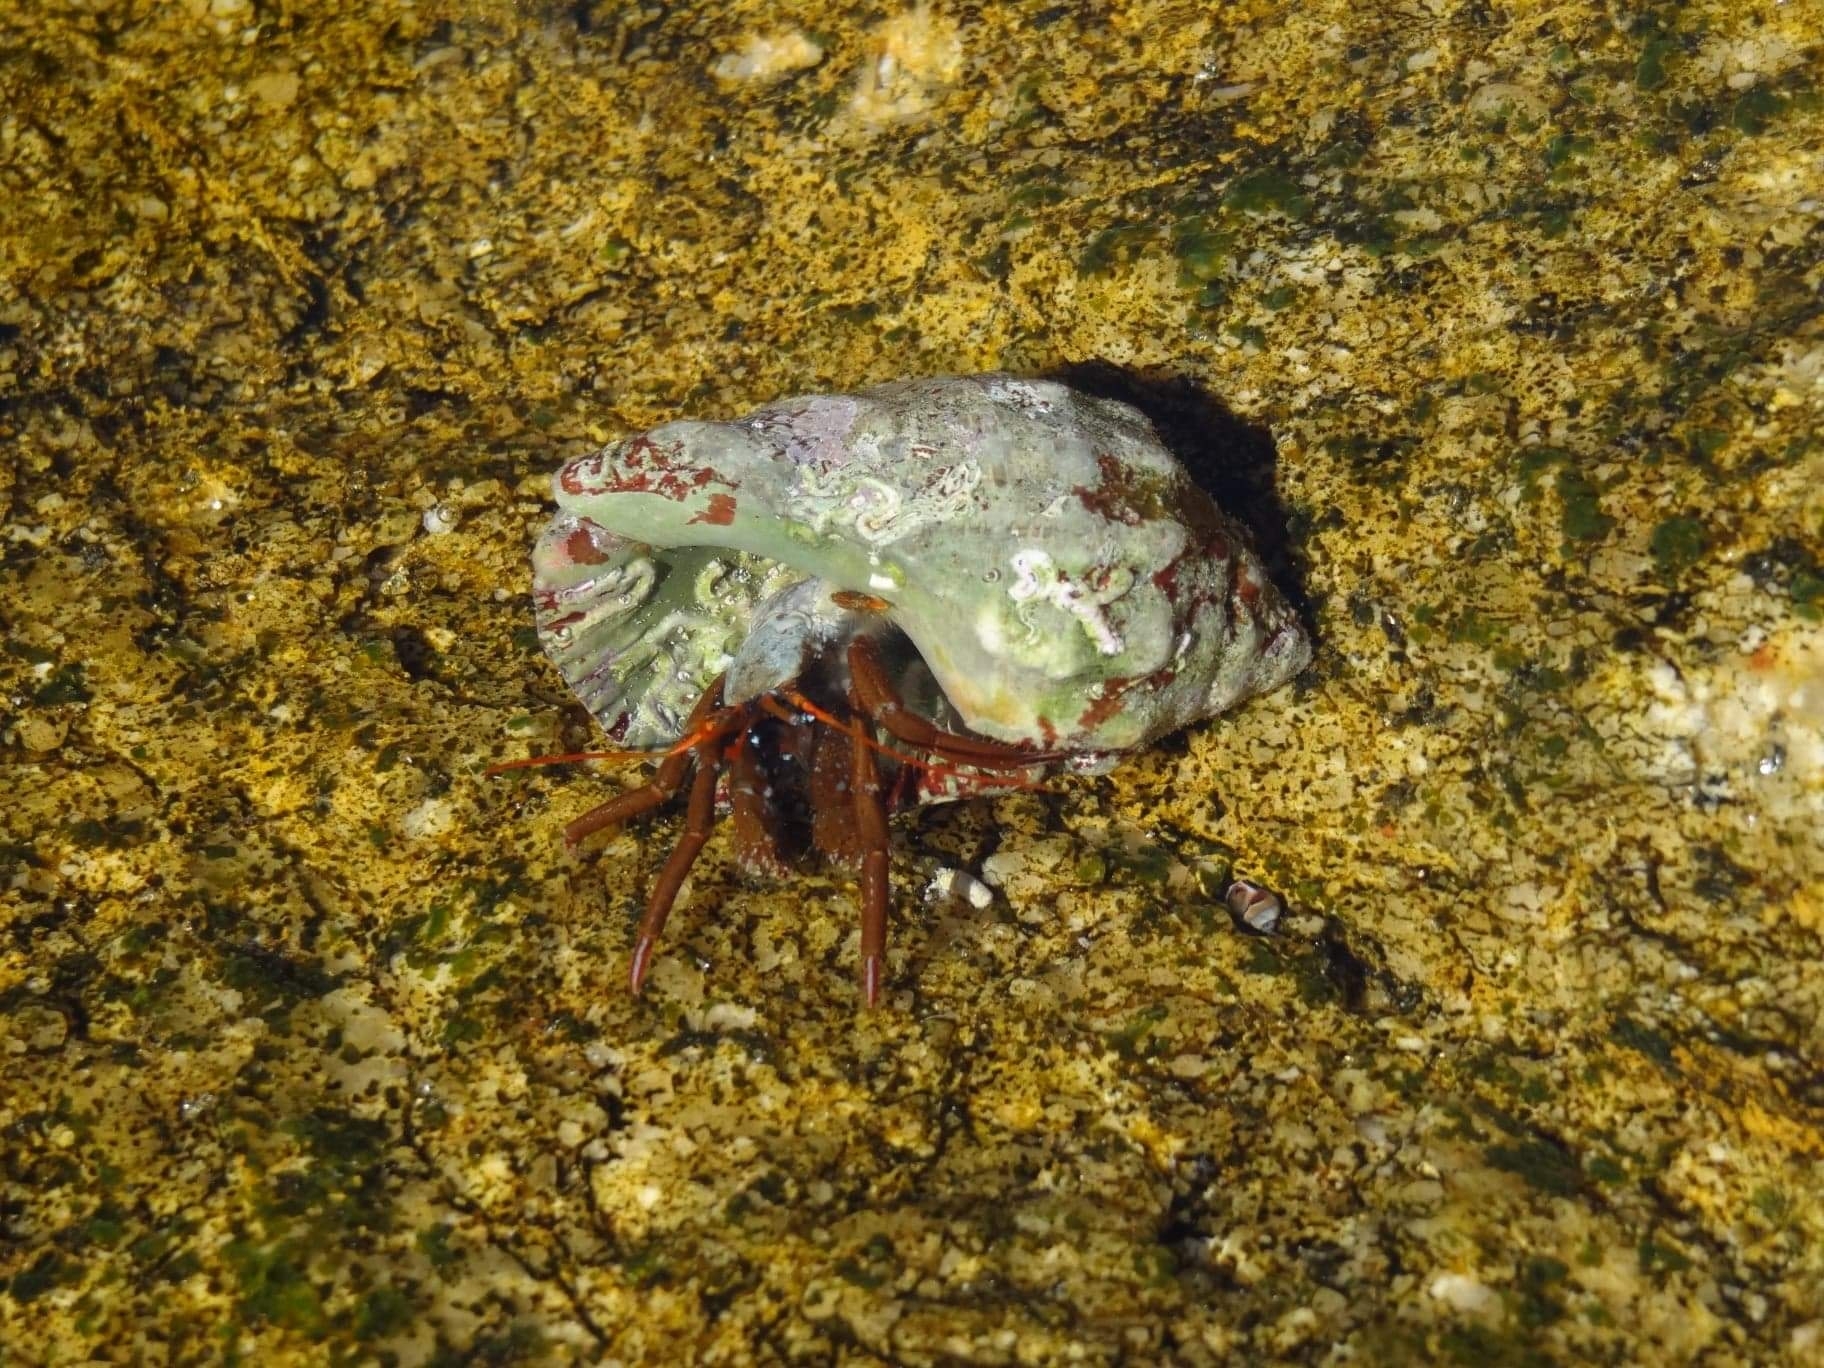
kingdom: Animalia
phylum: Arthropoda
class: Malacostraca
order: Decapoda
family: Diogenidae
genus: Clibanarius
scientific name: Clibanarius erythropus
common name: Hermit crab
